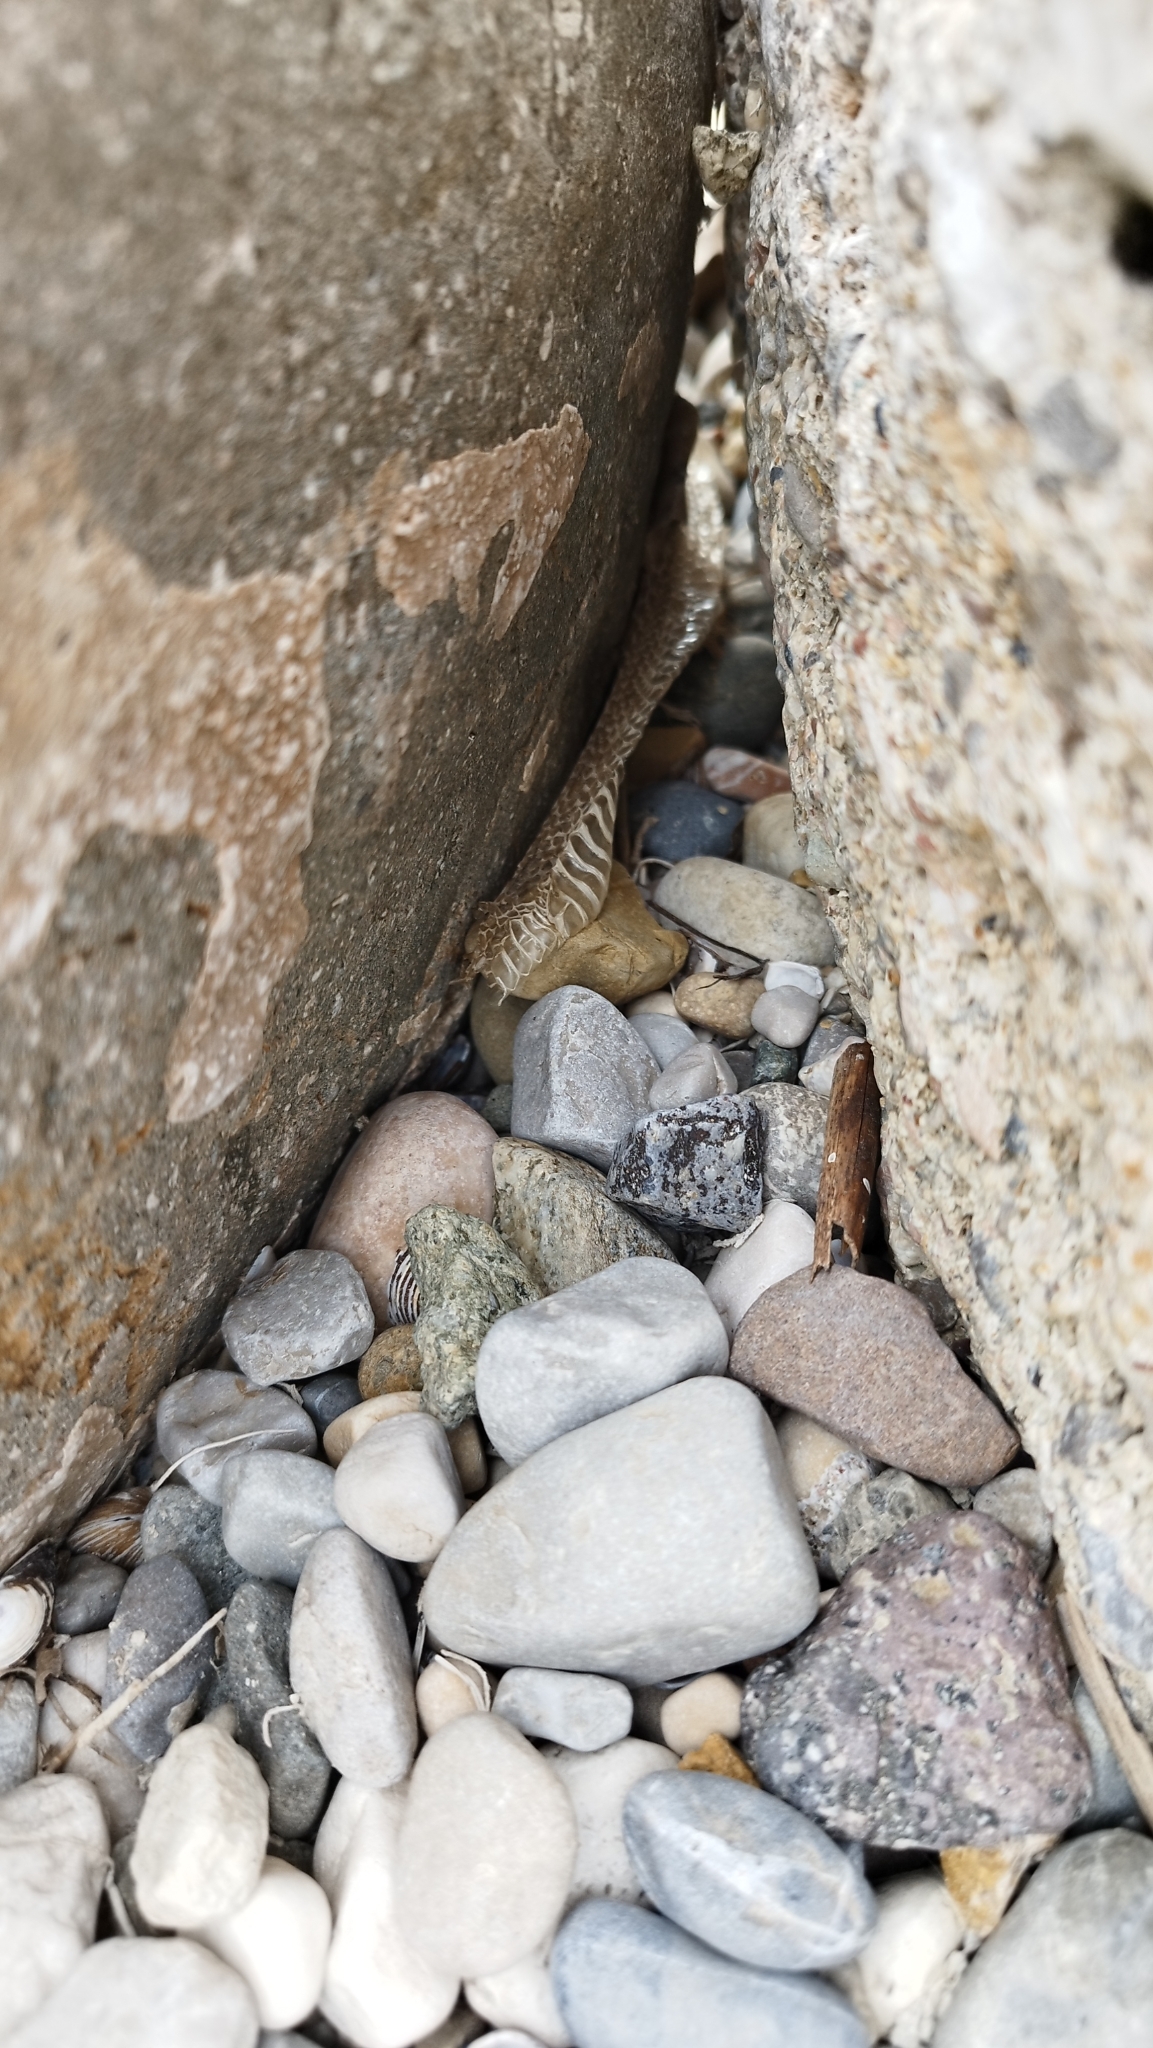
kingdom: Animalia
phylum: Chordata
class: Squamata
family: Colubridae
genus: Natrix
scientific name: Natrix tessellata
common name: Dice snake
